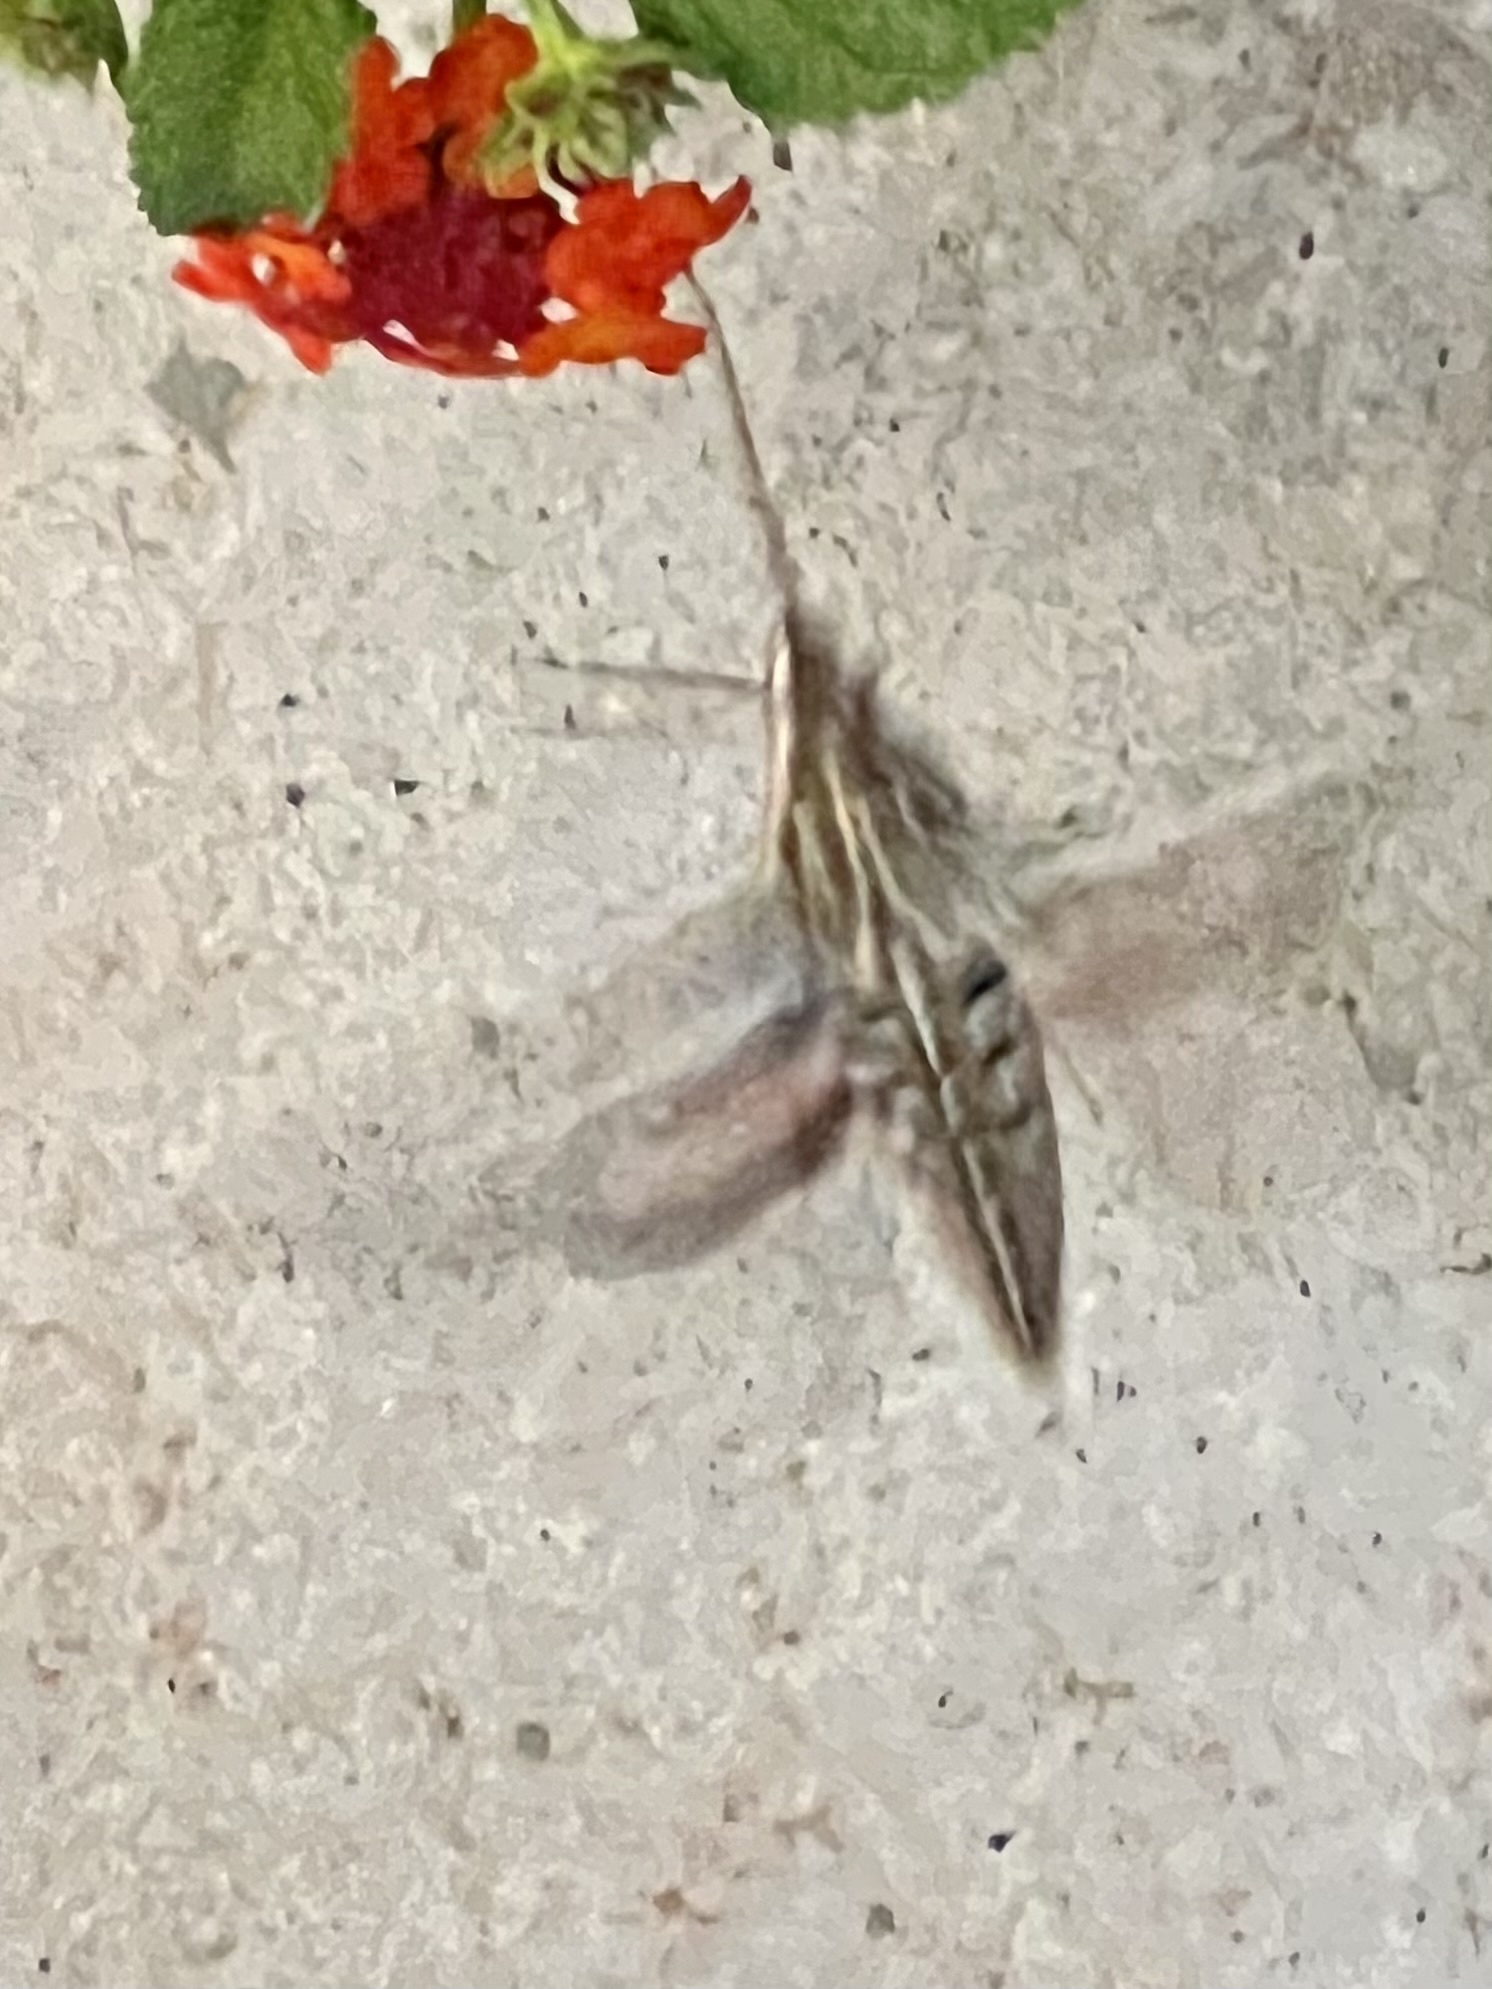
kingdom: Animalia
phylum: Arthropoda
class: Insecta
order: Lepidoptera
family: Sphingidae
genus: Hyles
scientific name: Hyles lineata
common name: White-lined sphinx
